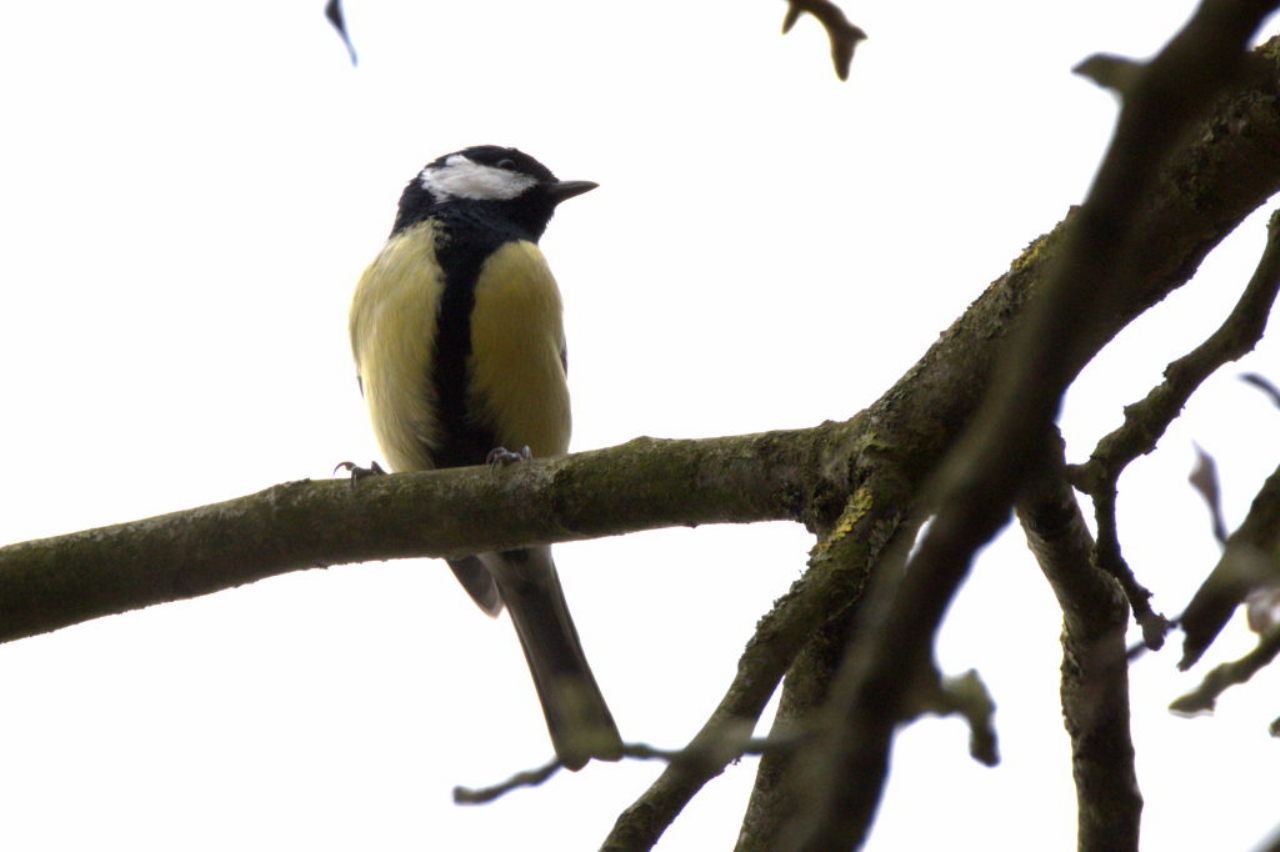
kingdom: Animalia
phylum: Chordata
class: Aves
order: Passeriformes
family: Paridae
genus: Parus
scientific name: Parus major
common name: Great tit
